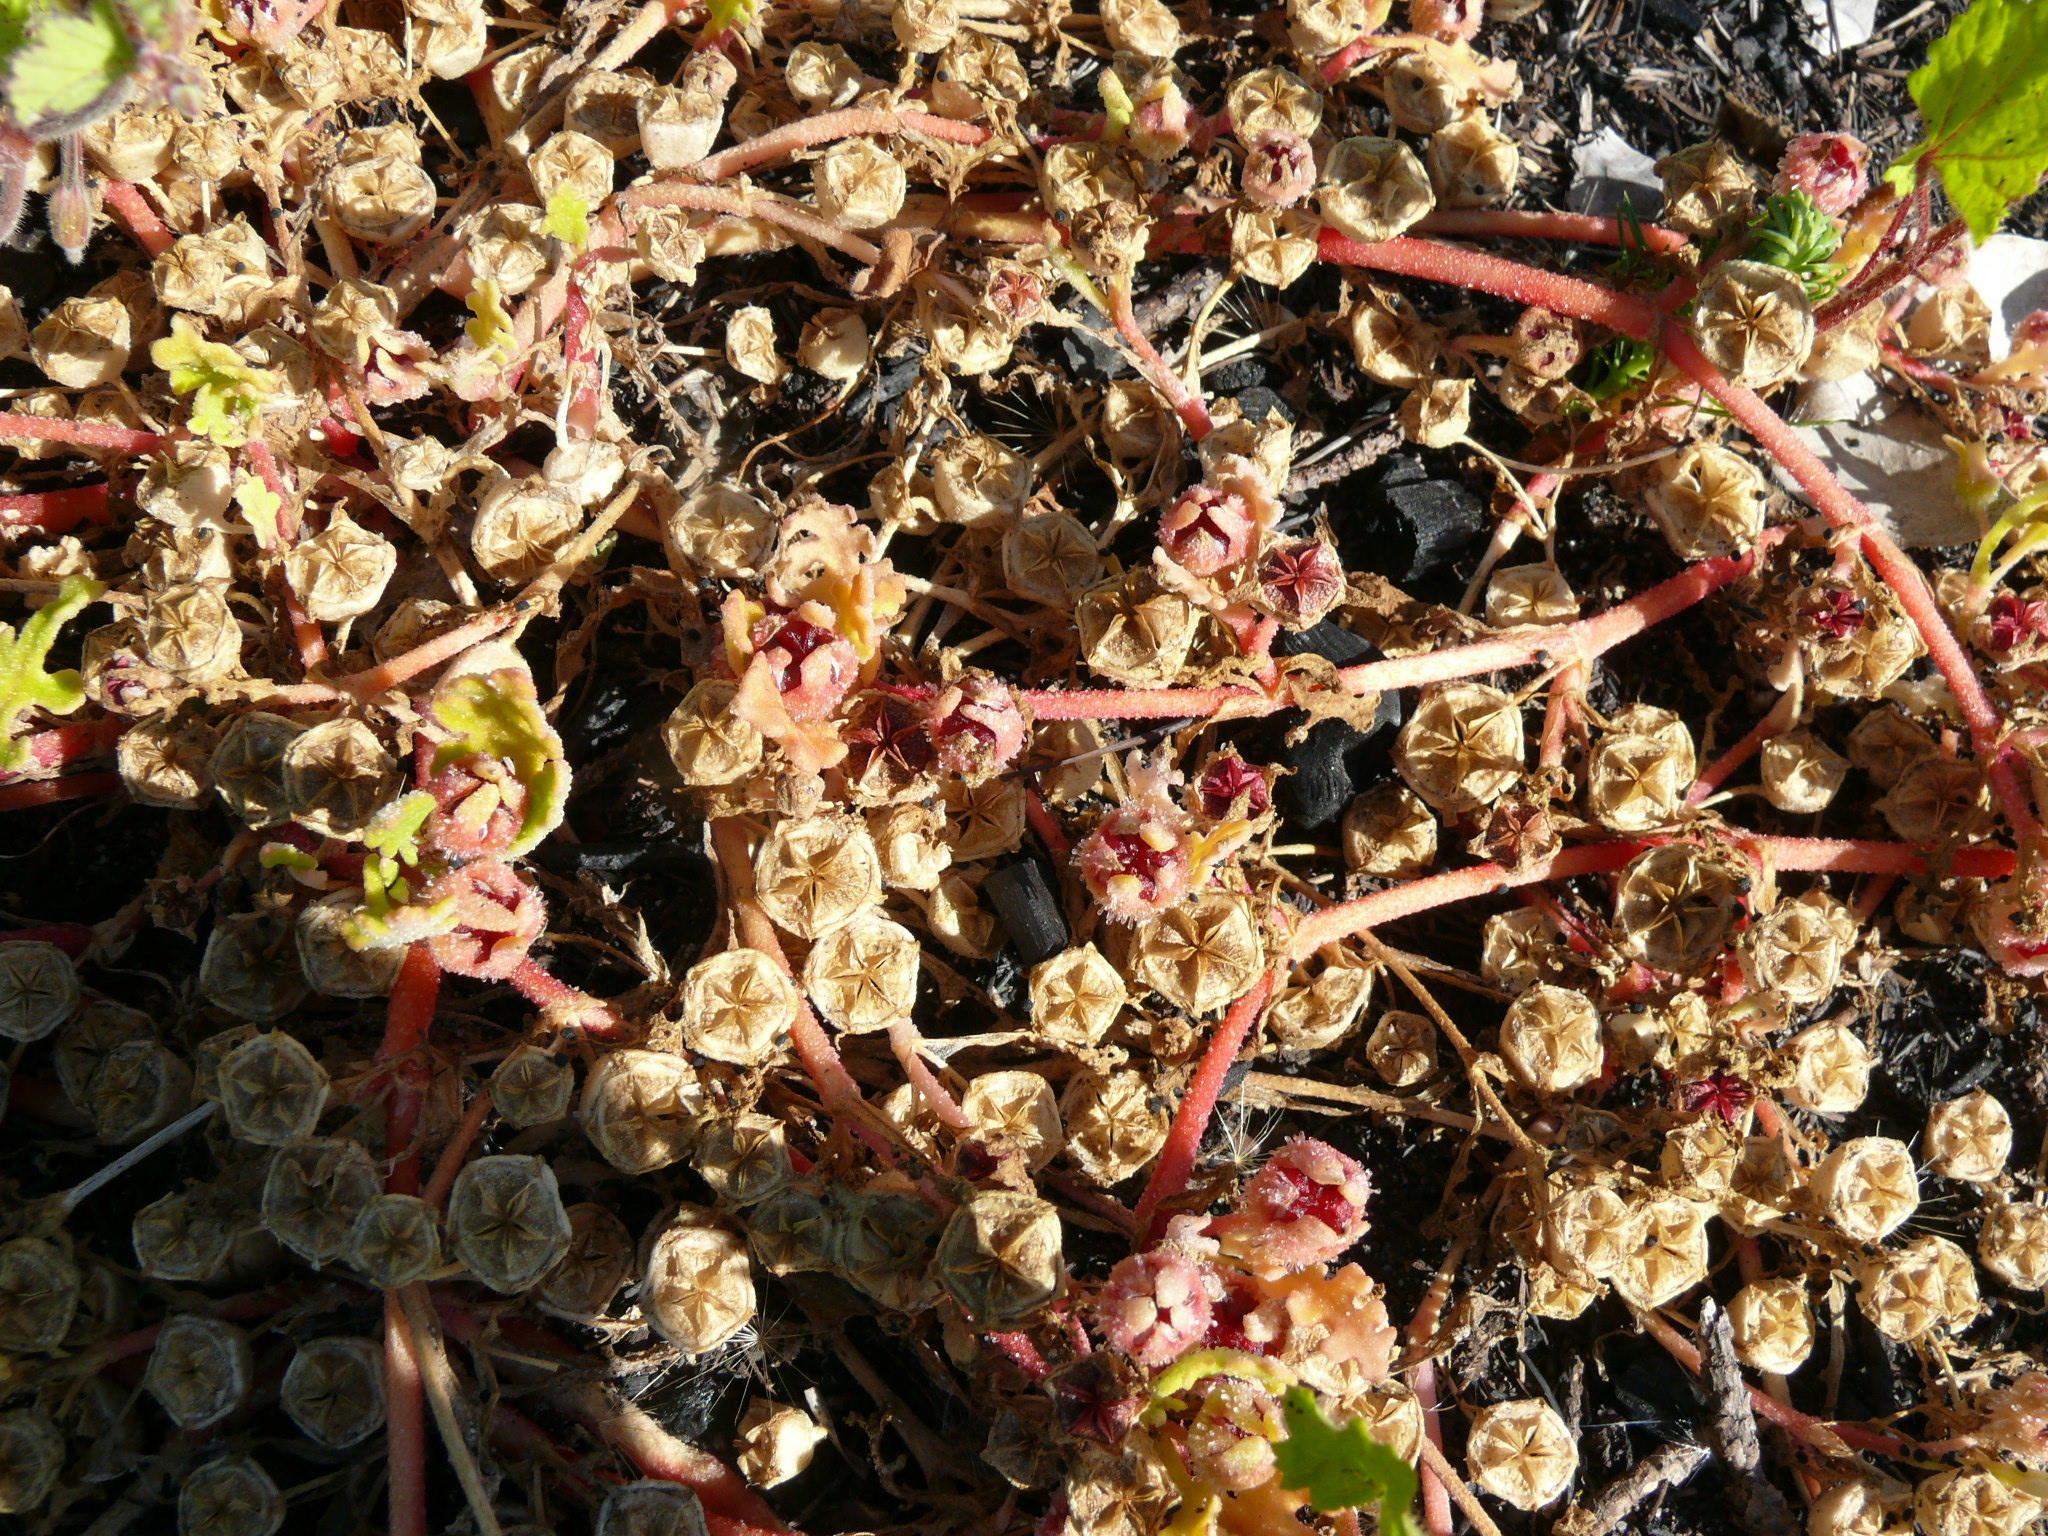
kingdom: Plantae
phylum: Tracheophyta
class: Magnoliopsida
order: Caryophyllales
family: Aizoaceae
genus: Cleretum
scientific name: Cleretum herrei
